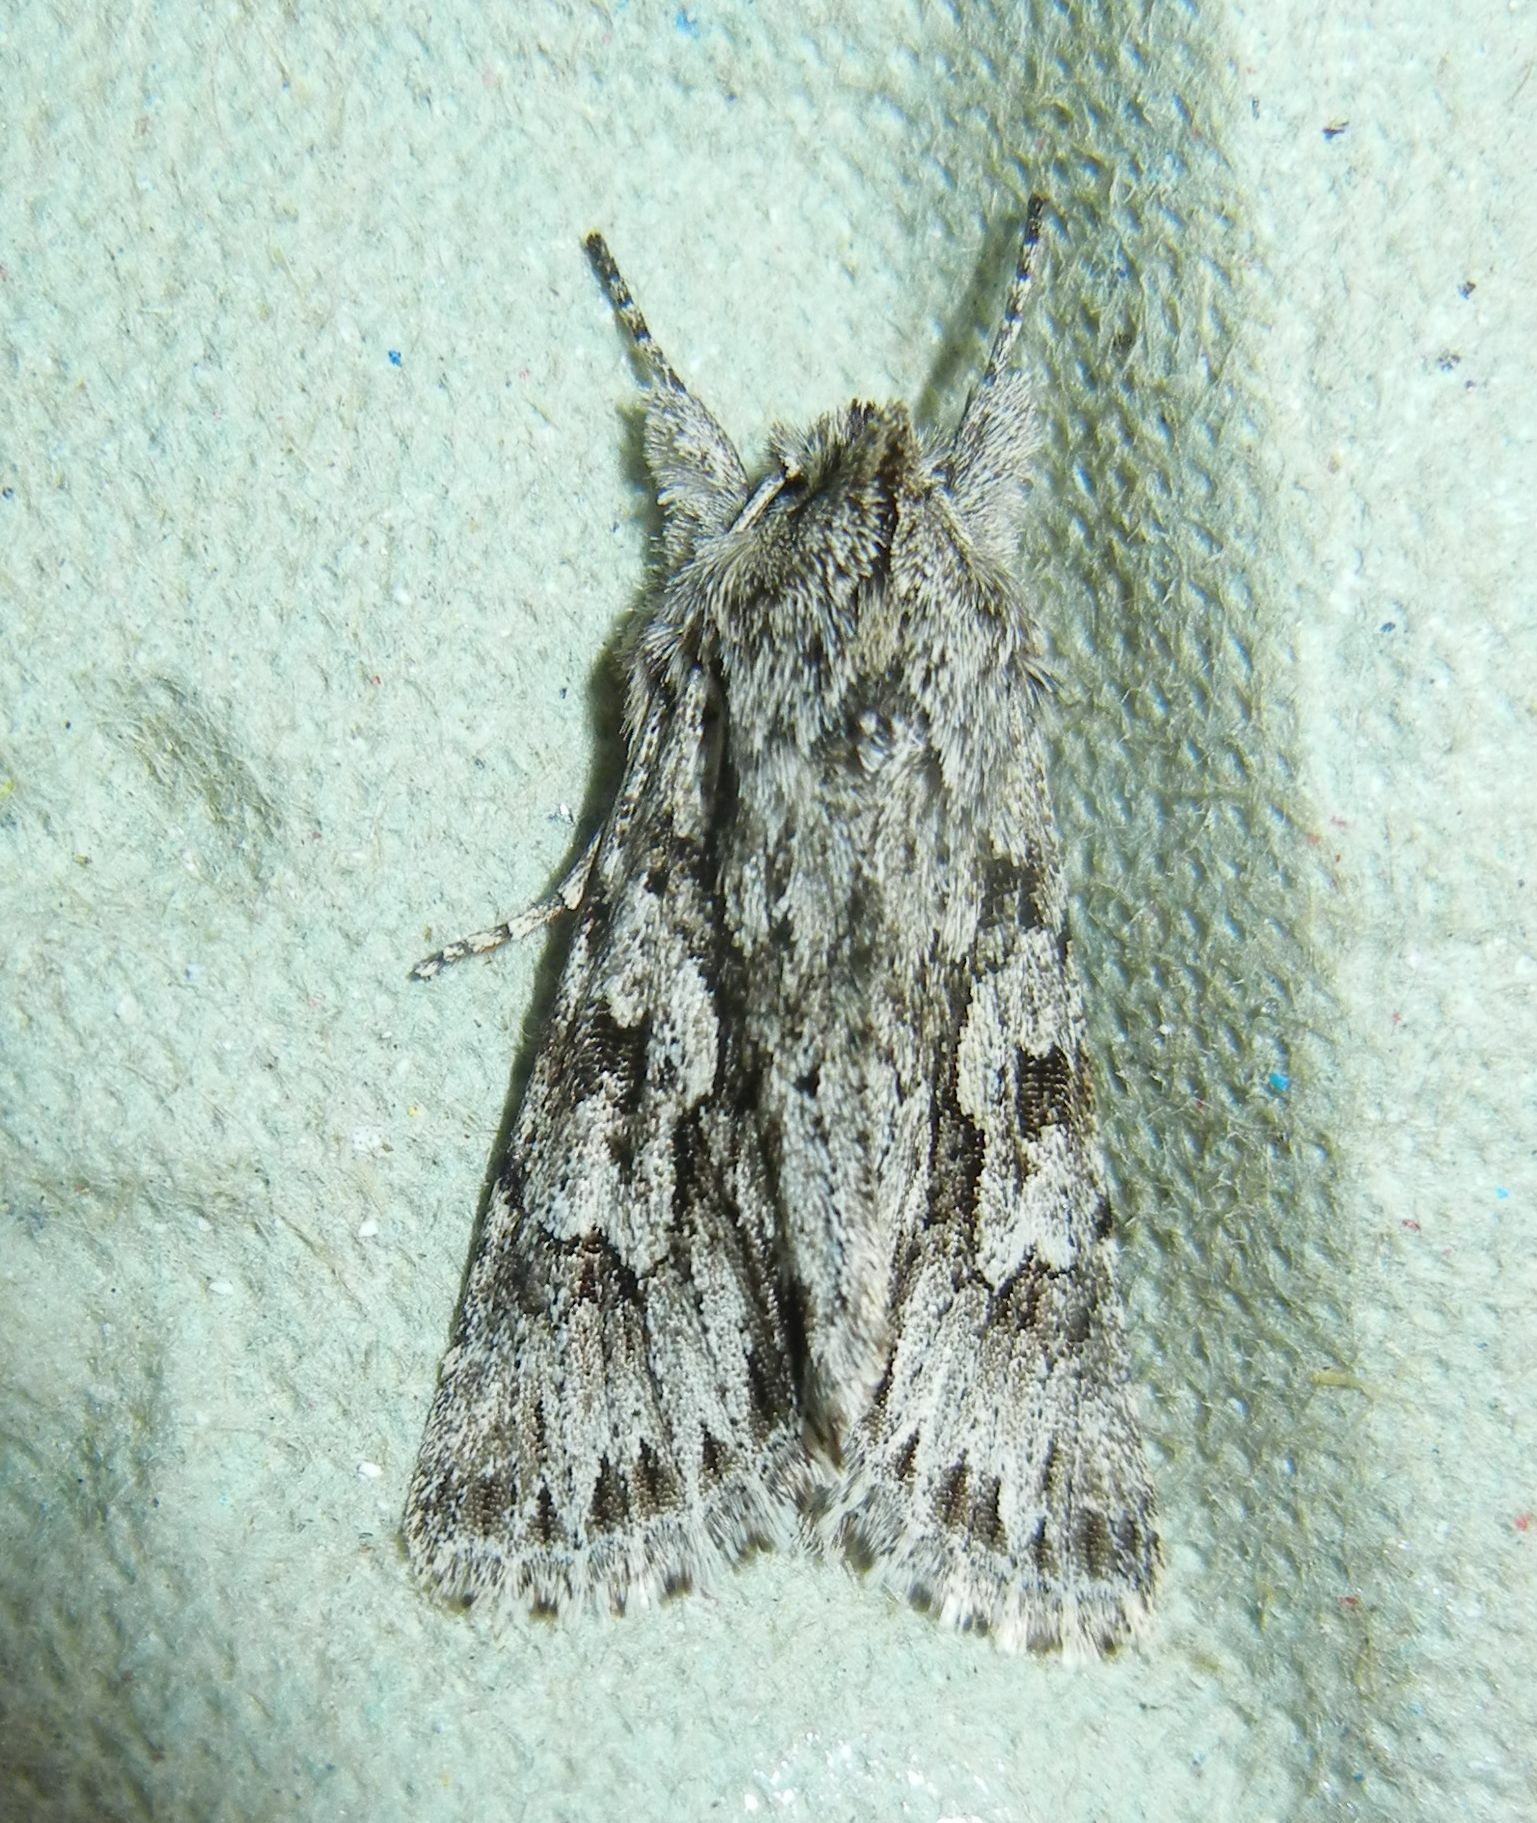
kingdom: Animalia
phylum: Arthropoda
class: Insecta
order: Lepidoptera
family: Noctuidae
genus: Xylocampa
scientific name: Xylocampa areola
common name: Early grey
